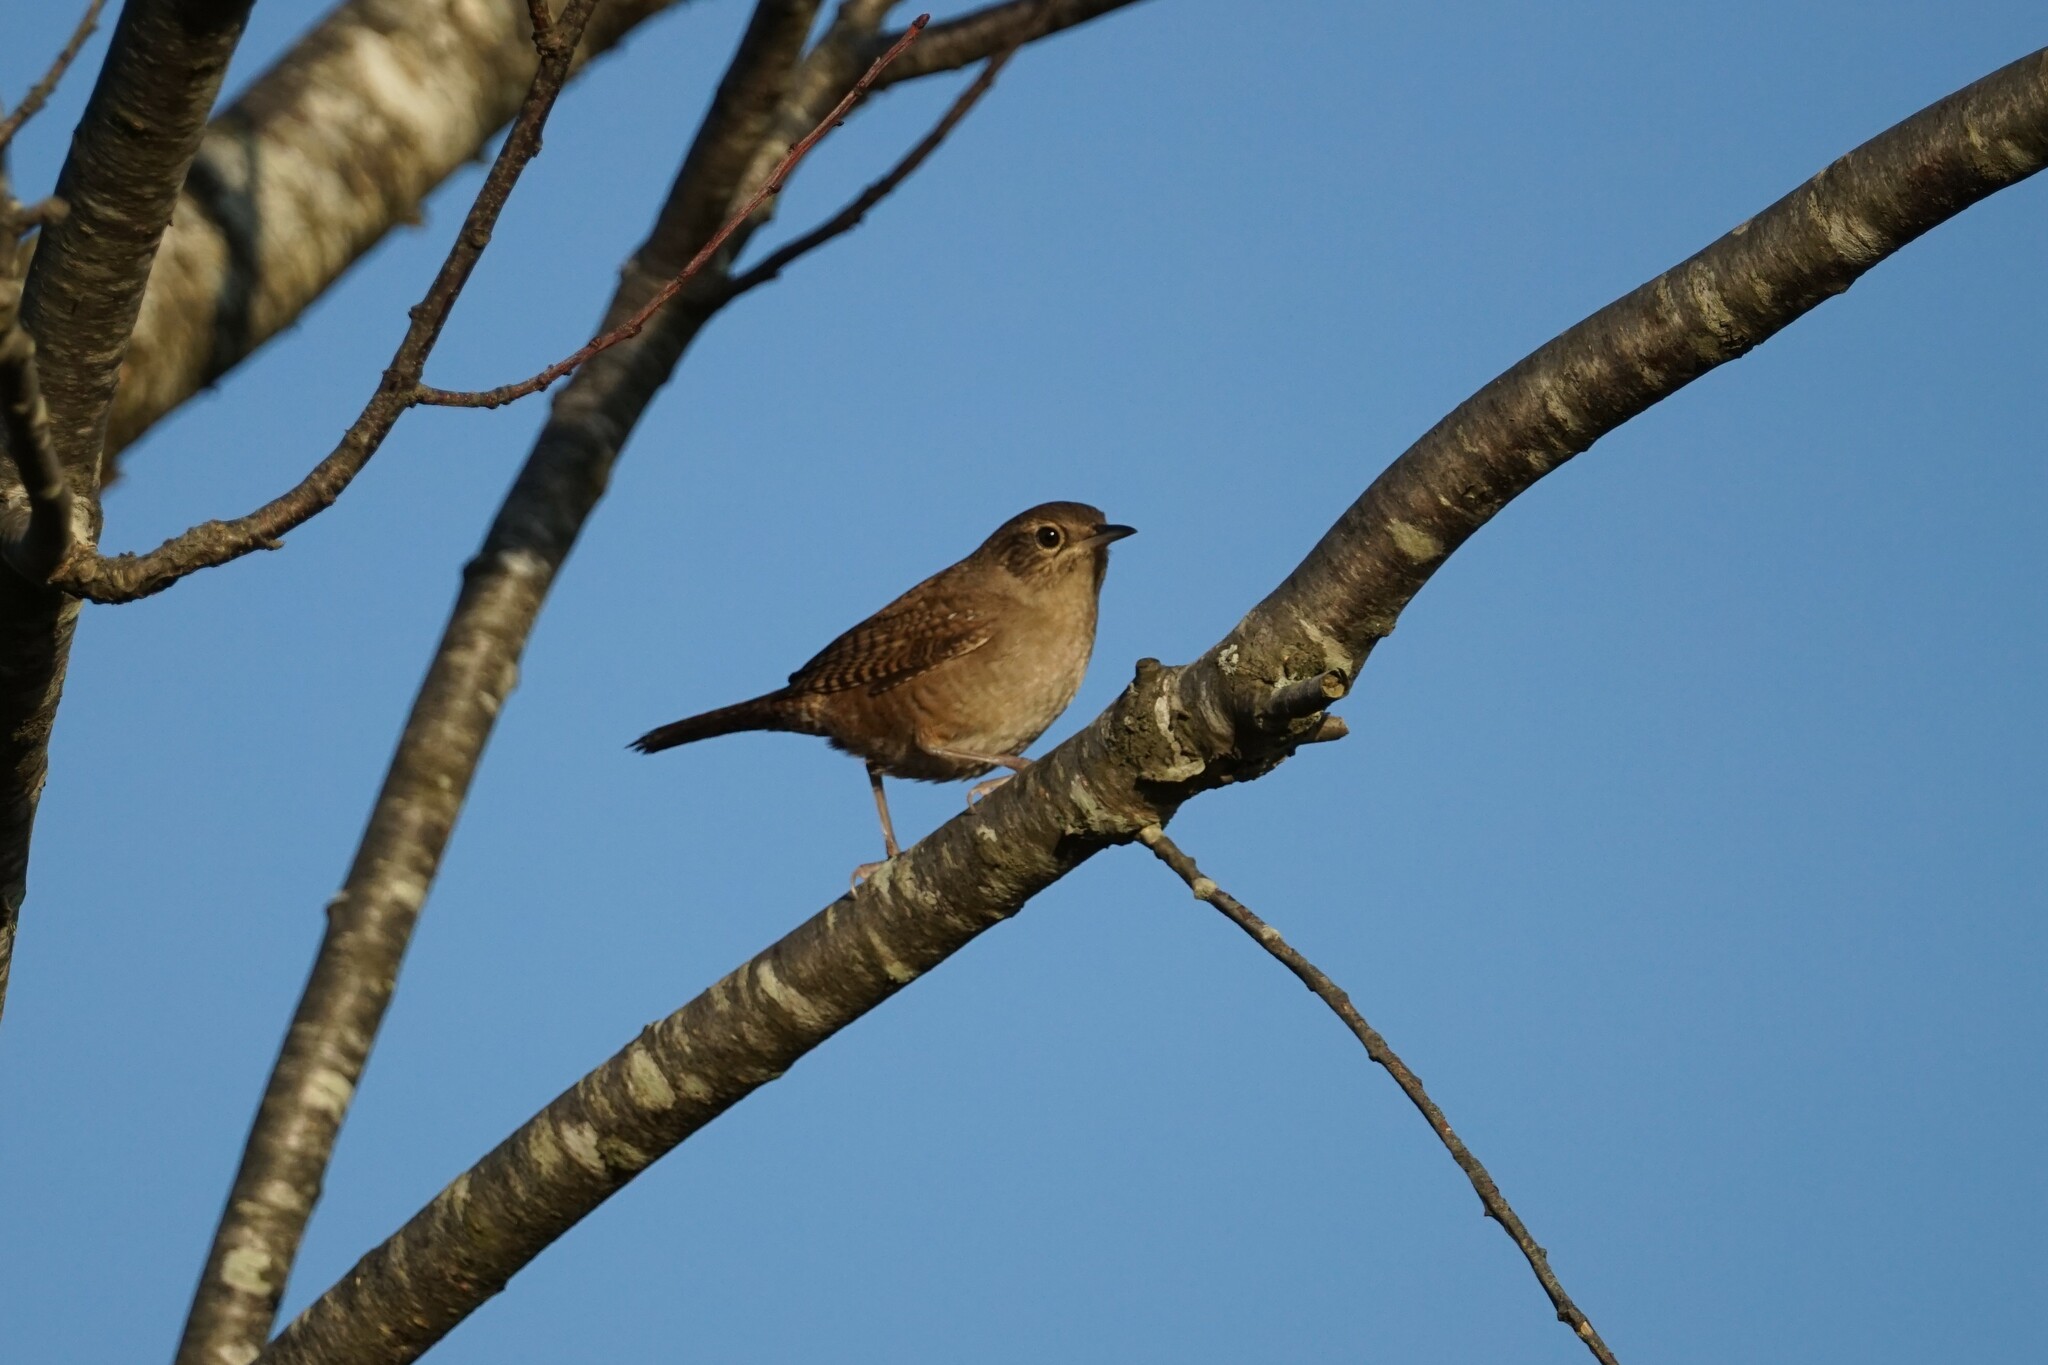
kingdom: Animalia
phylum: Chordata
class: Aves
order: Passeriformes
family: Troglodytidae
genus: Troglodytes
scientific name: Troglodytes aedon
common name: House wren
